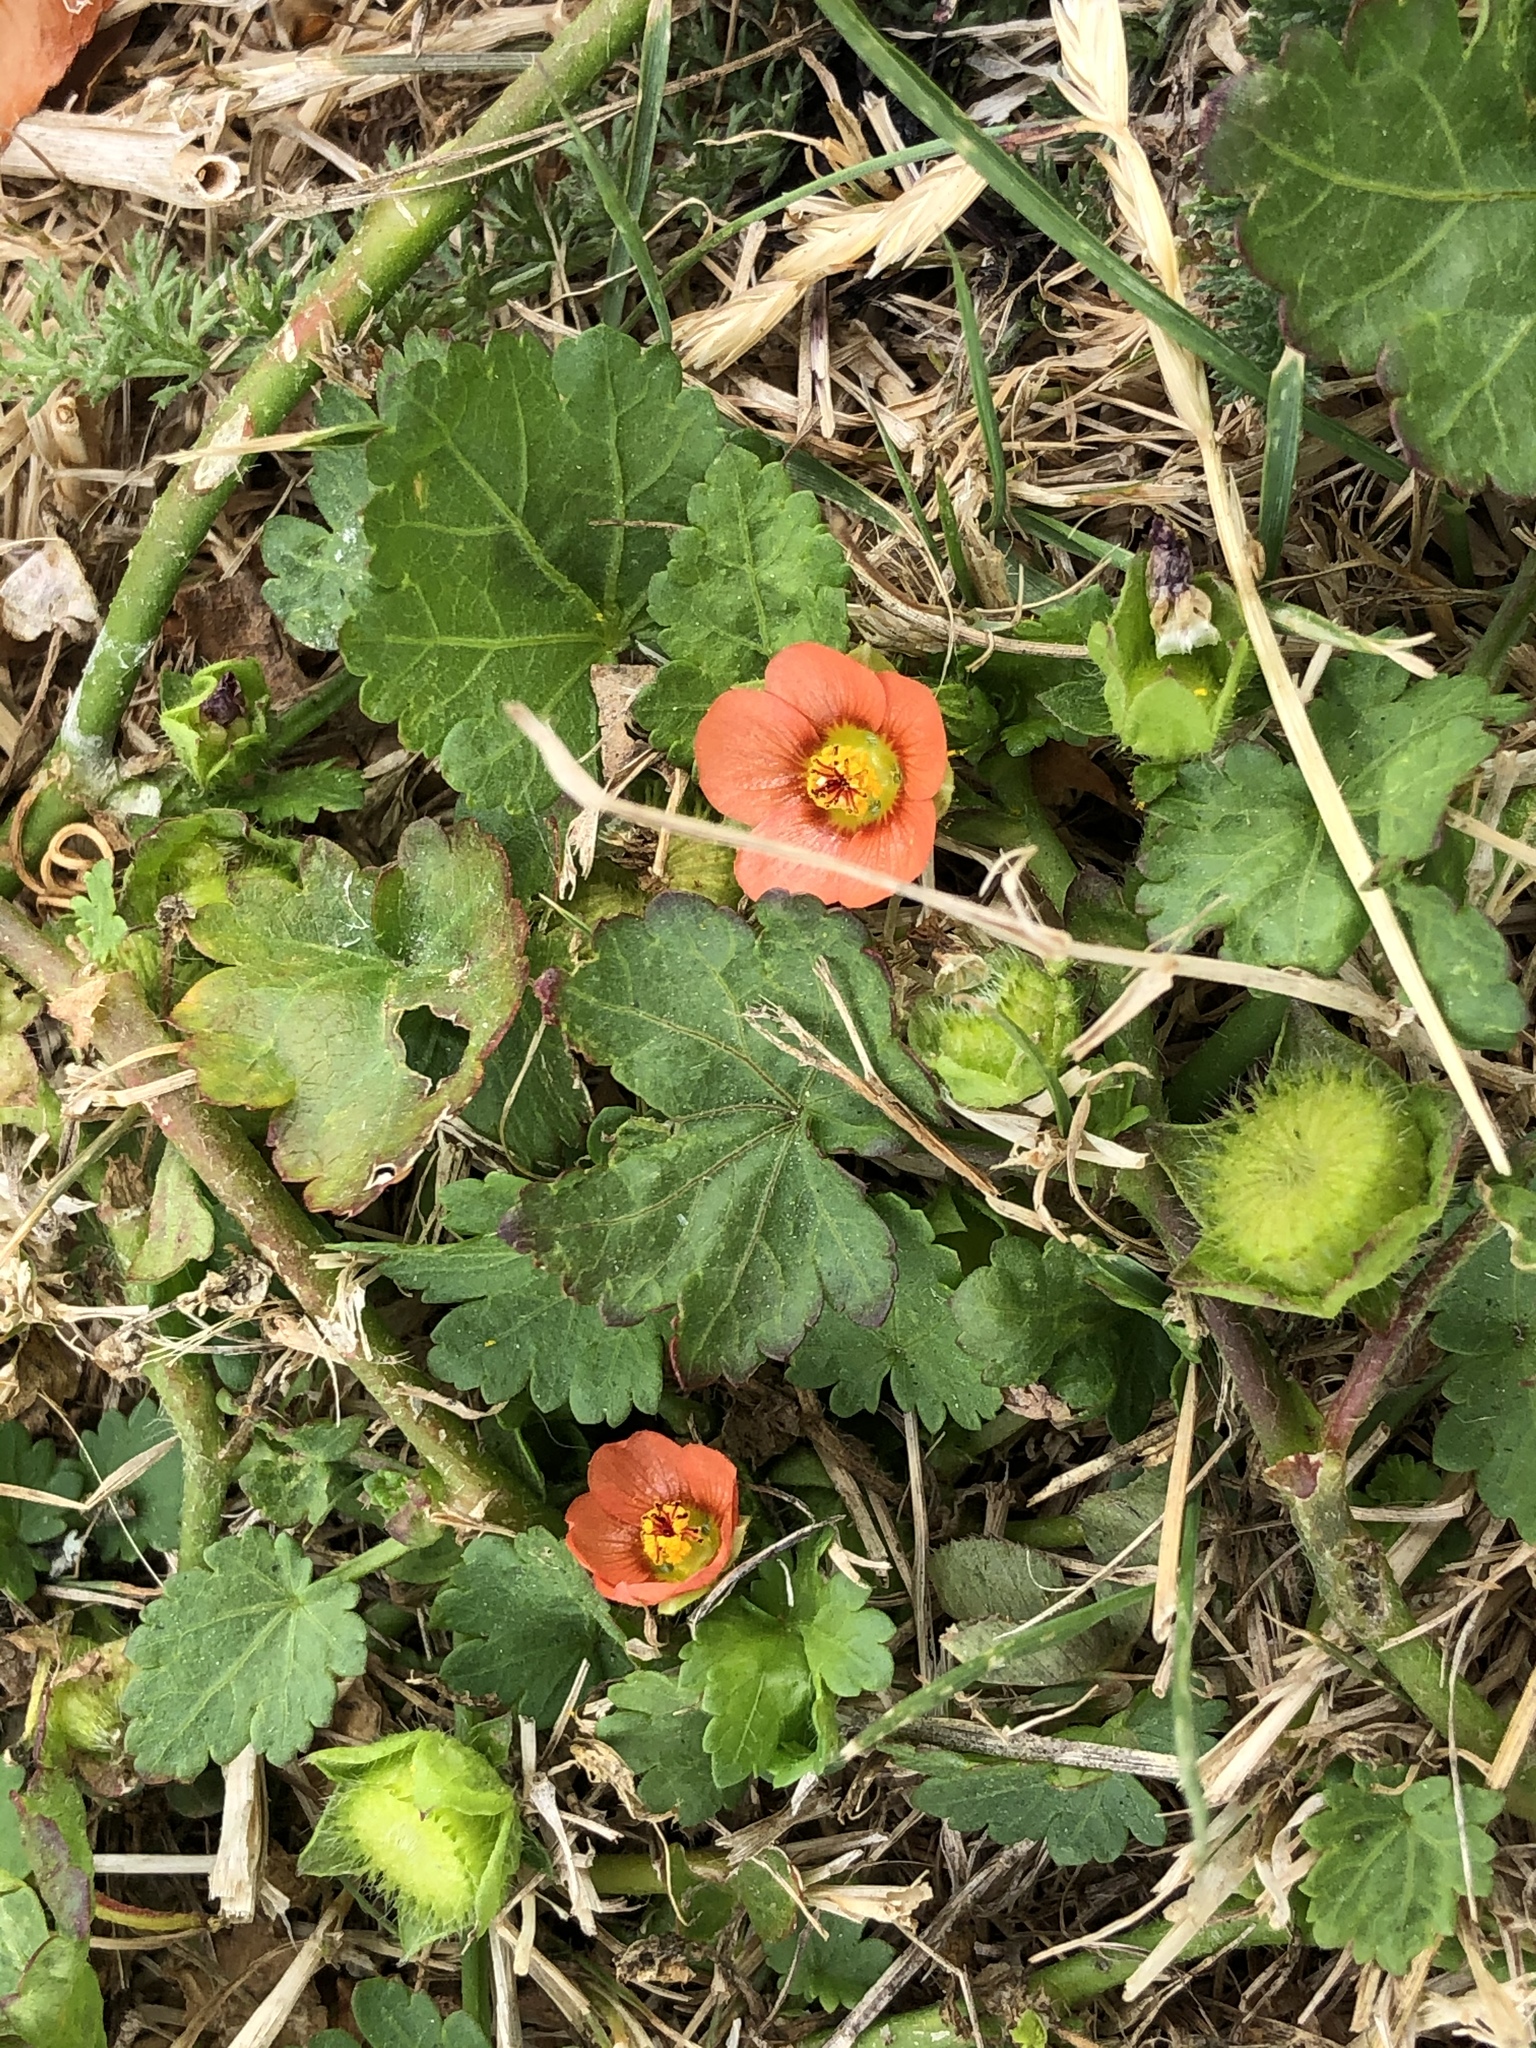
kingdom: Plantae
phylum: Tracheophyta
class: Magnoliopsida
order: Malvales
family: Malvaceae
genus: Modiola
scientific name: Modiola caroliniana
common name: Carolina bristlemallow
